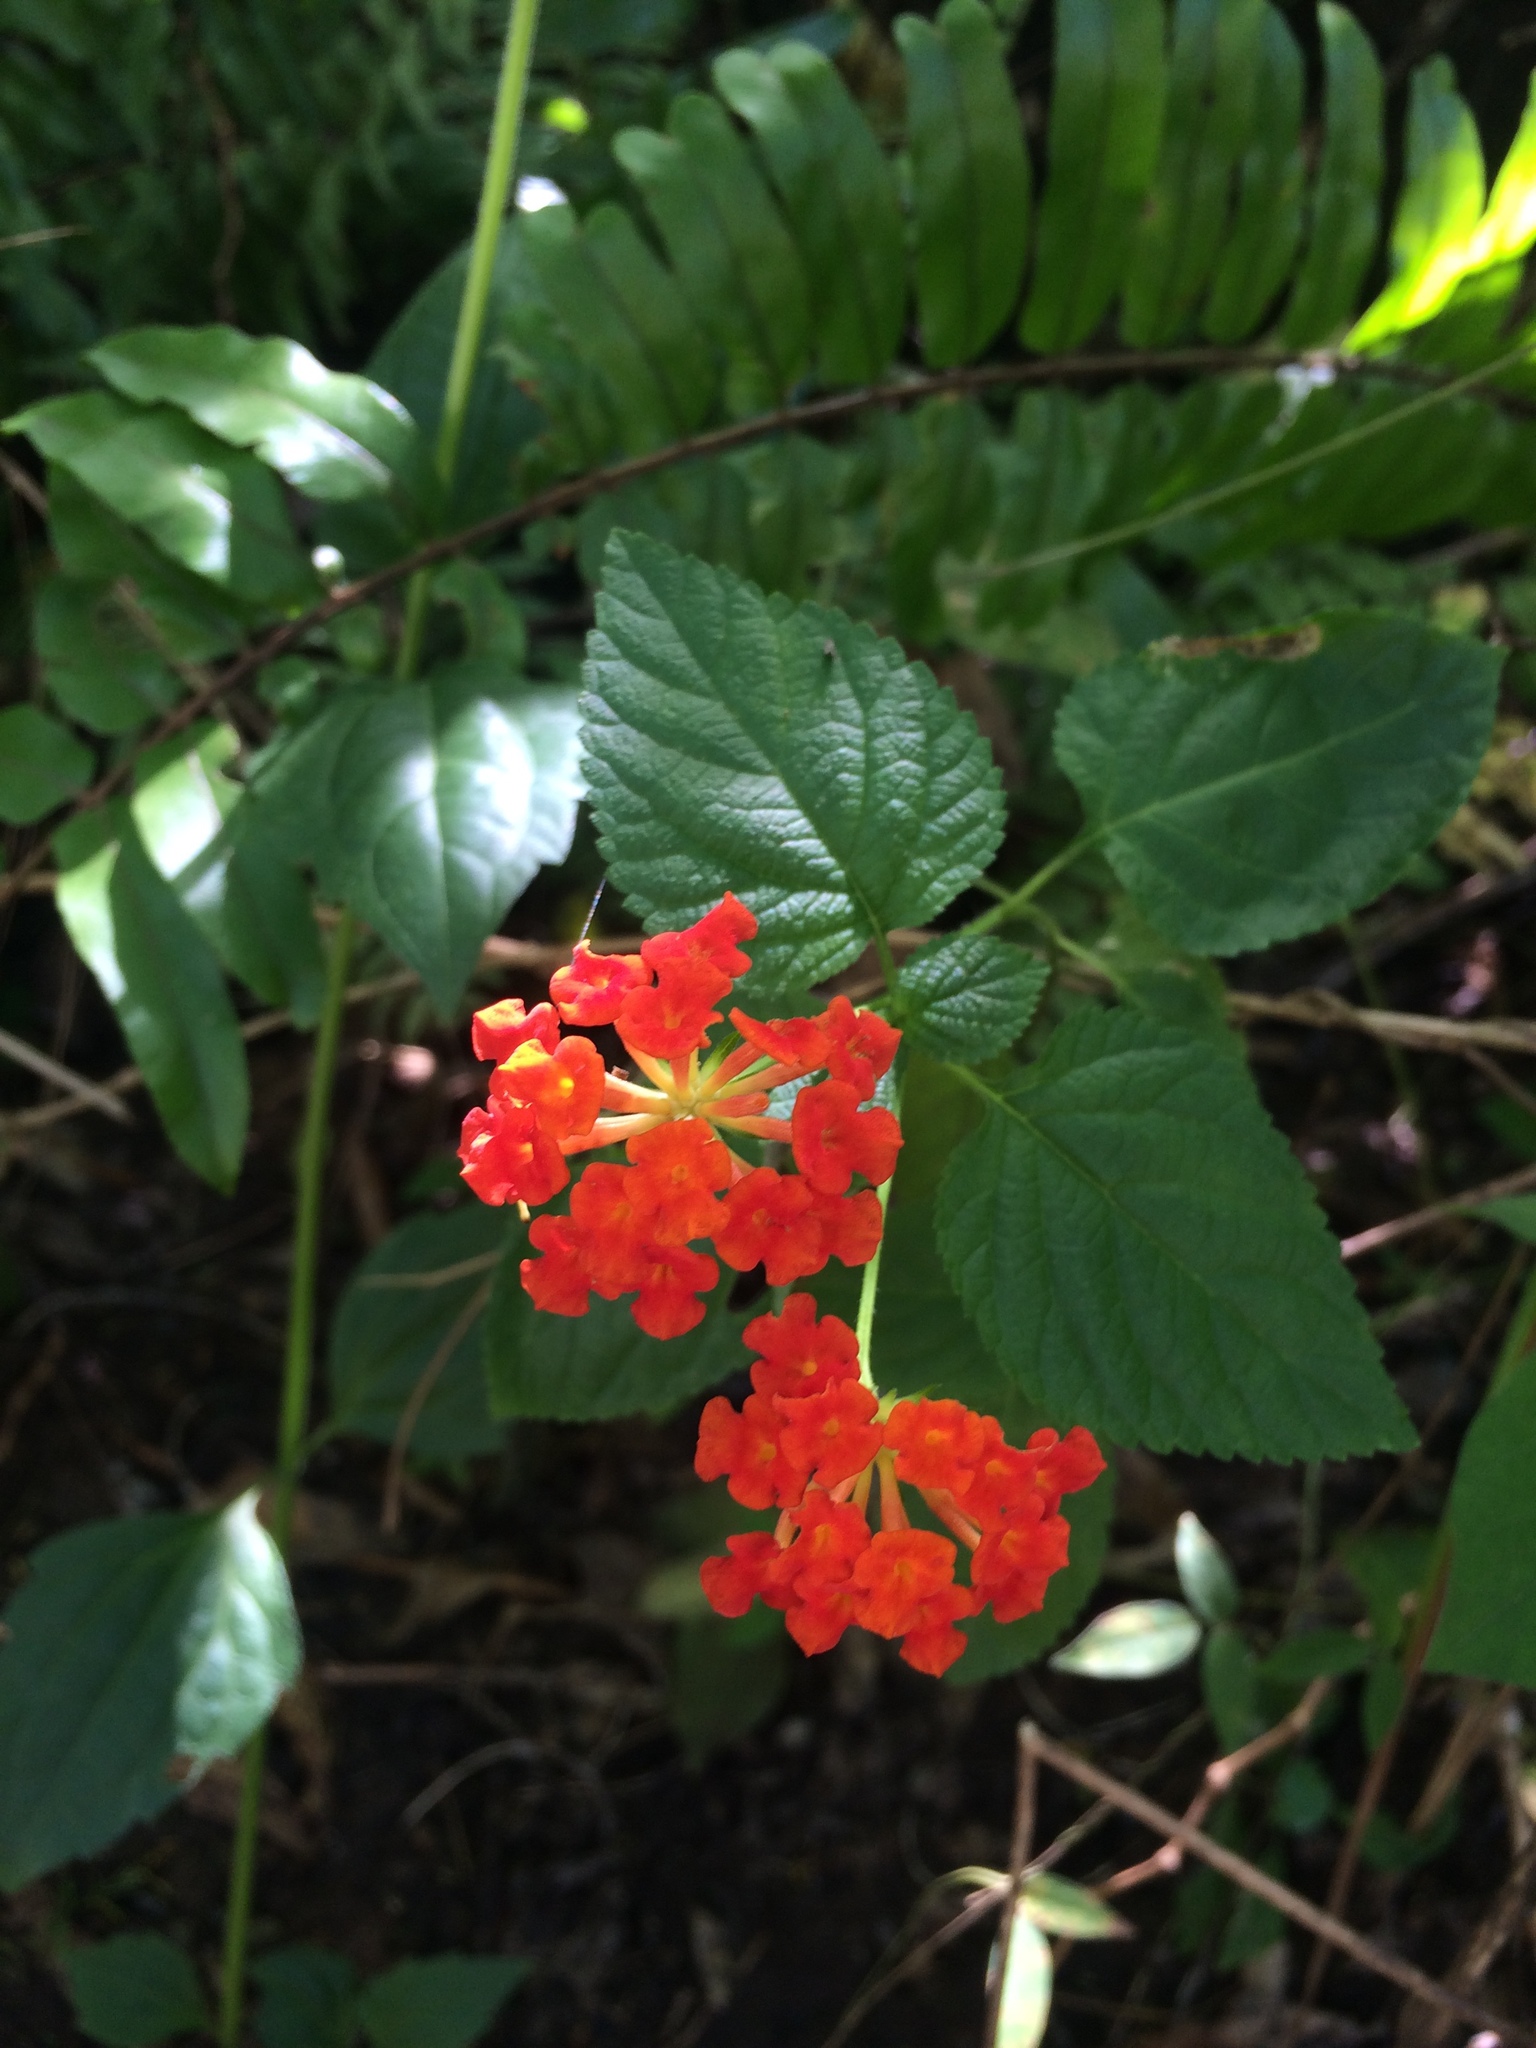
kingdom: Plantae
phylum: Tracheophyta
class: Magnoliopsida
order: Lamiales
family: Verbenaceae
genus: Lantana
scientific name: Lantana camara
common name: Lantana
